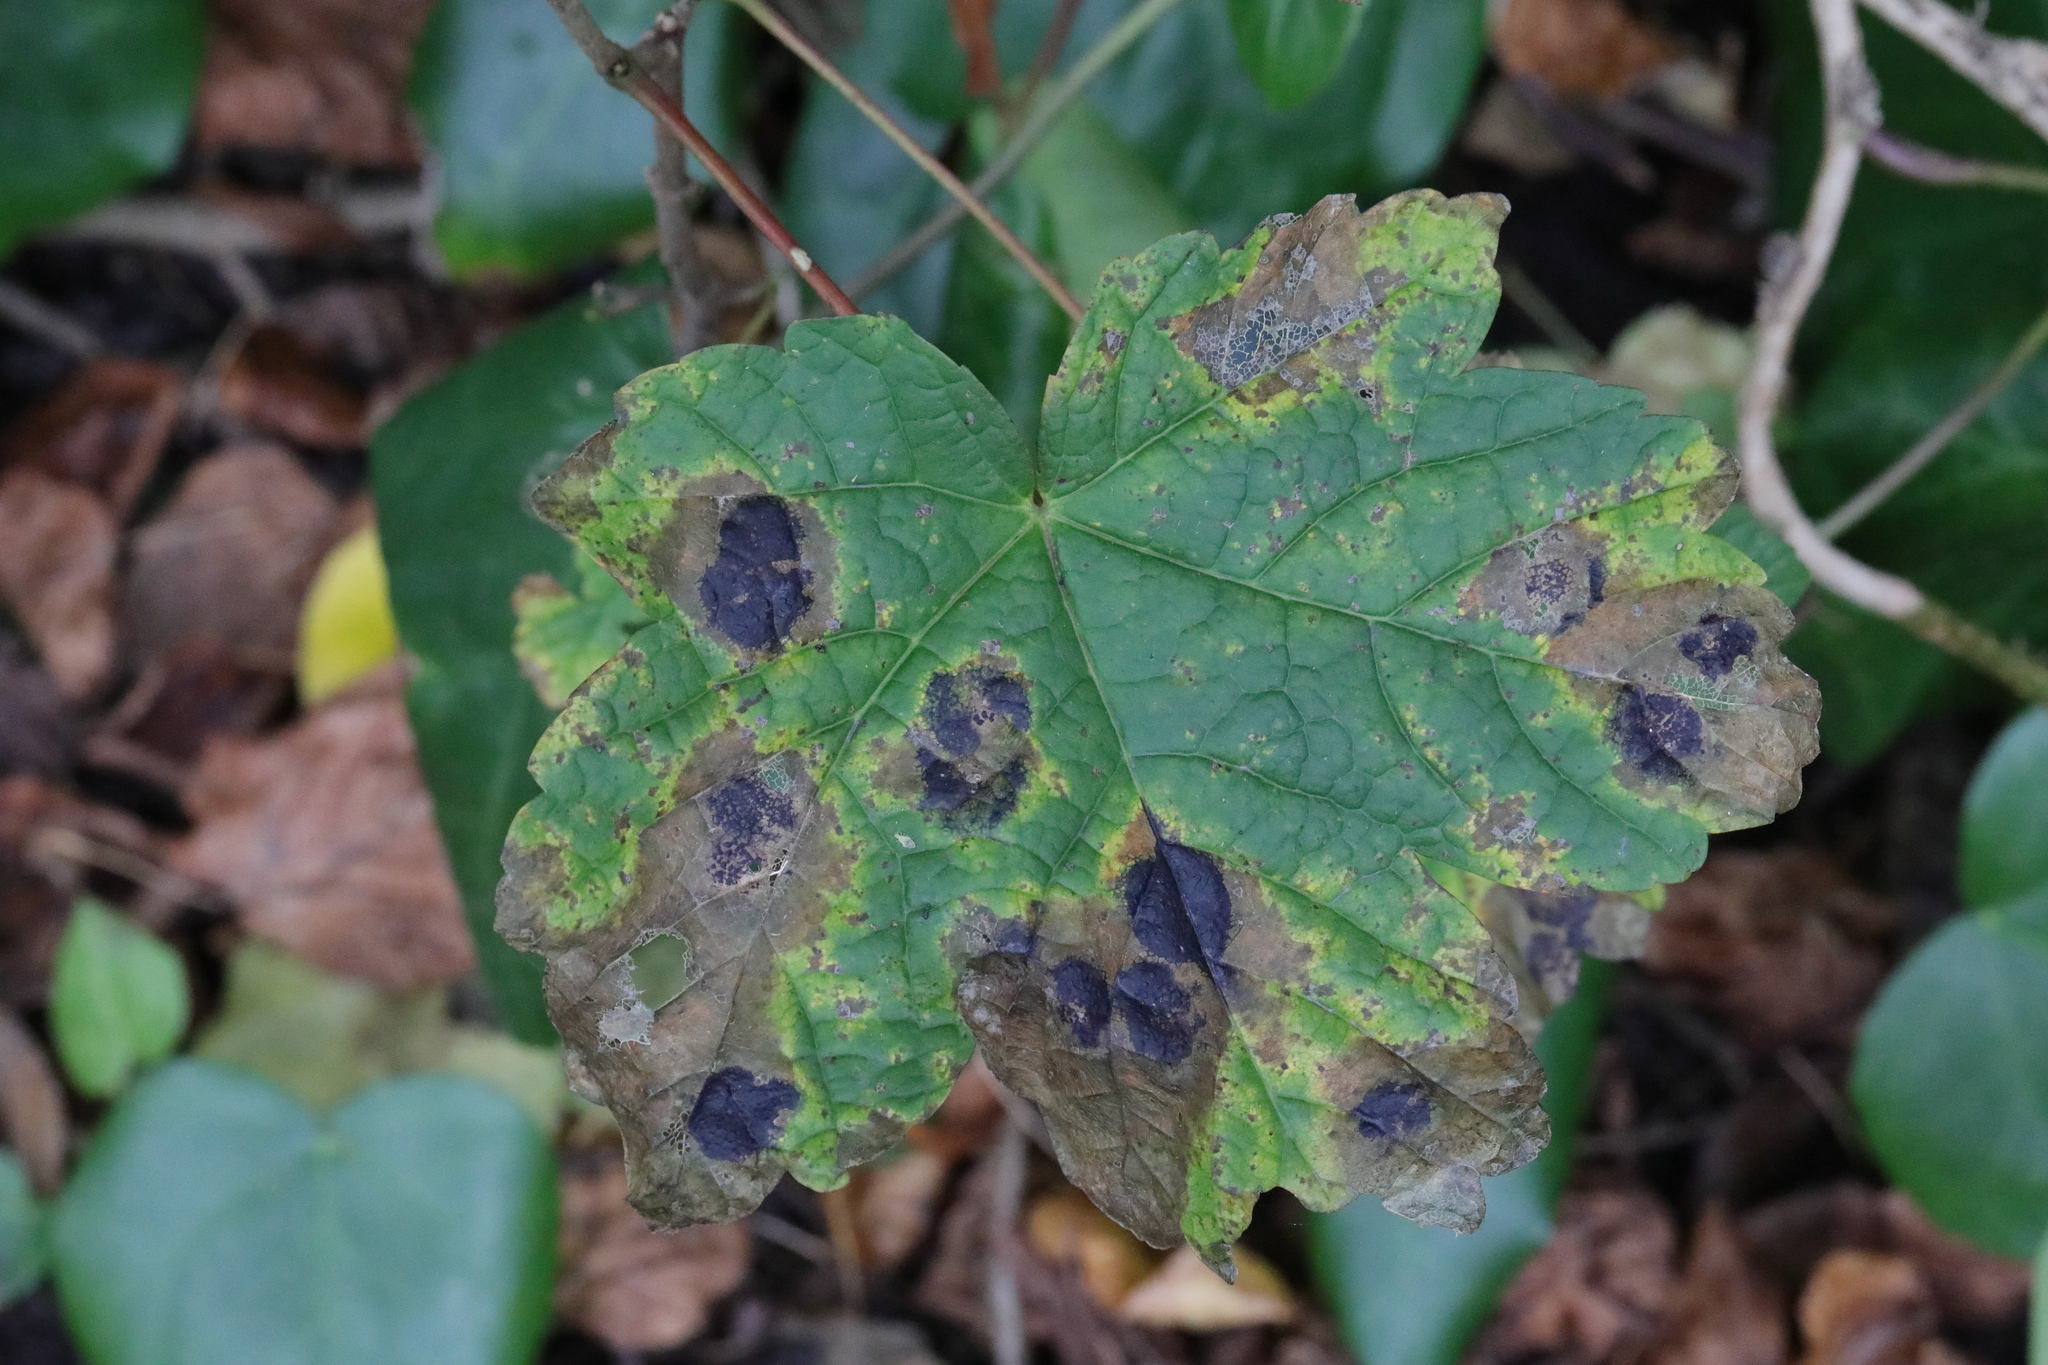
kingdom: Fungi
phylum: Ascomycota
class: Leotiomycetes
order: Rhytismatales
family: Rhytismataceae
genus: Rhytisma
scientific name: Rhytisma acerinum
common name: European tar spot
